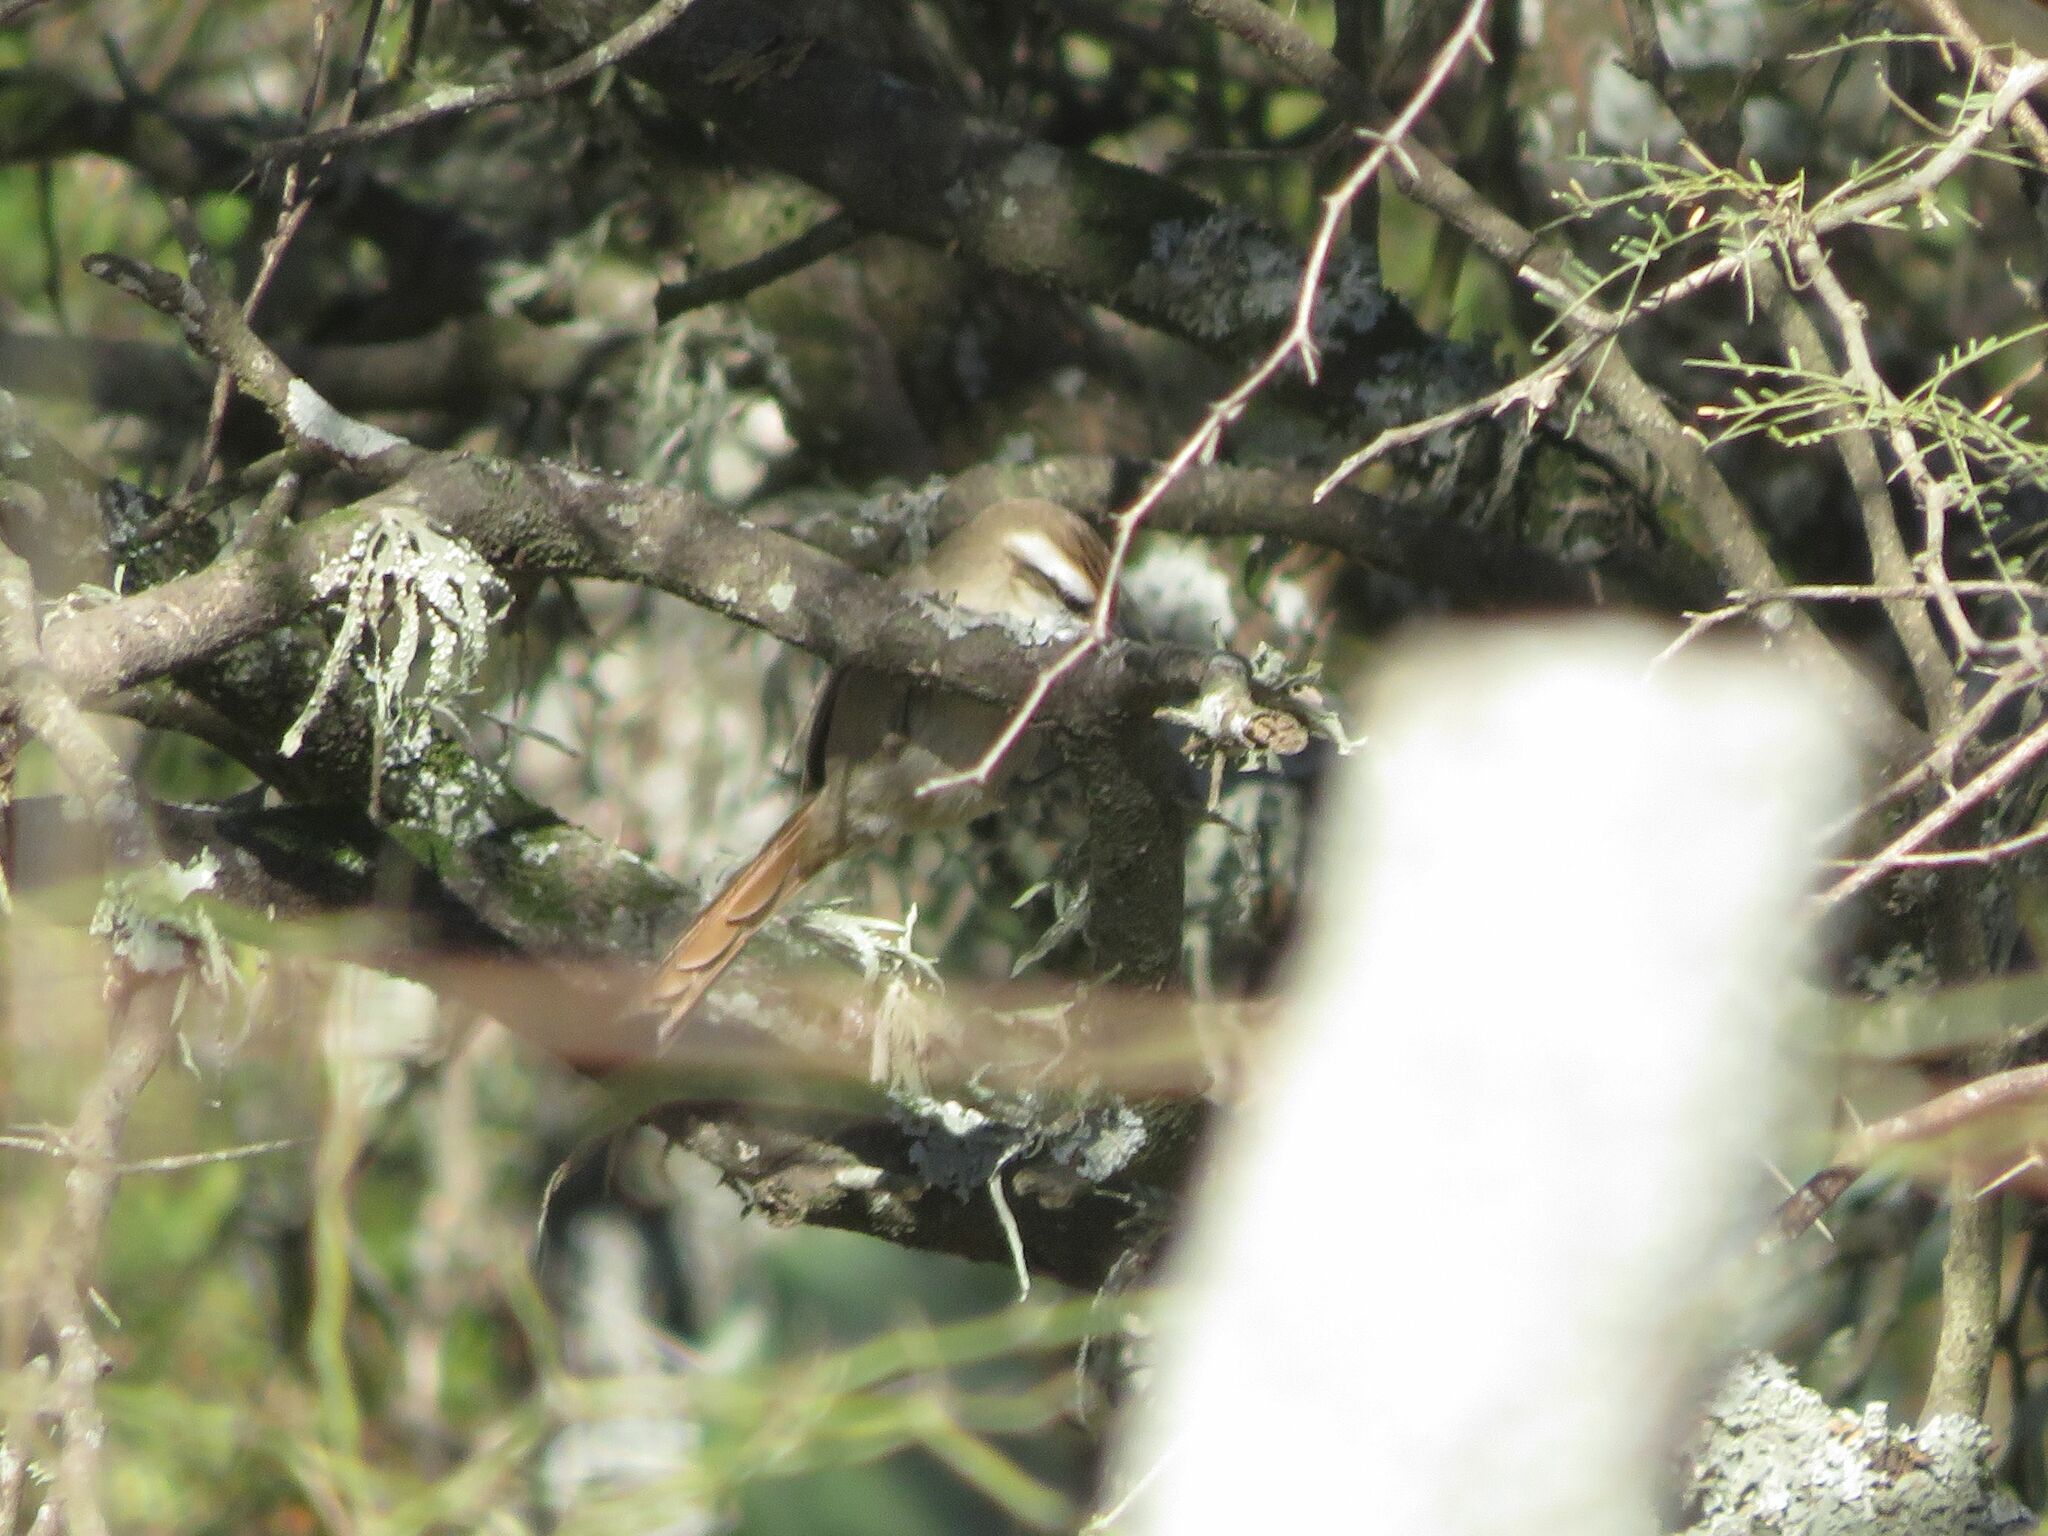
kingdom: Animalia
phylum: Chordata
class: Aves
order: Passeriformes
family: Furnariidae
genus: Cranioleuca
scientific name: Cranioleuca pyrrhophia
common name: Stripe-crowned spinetail
